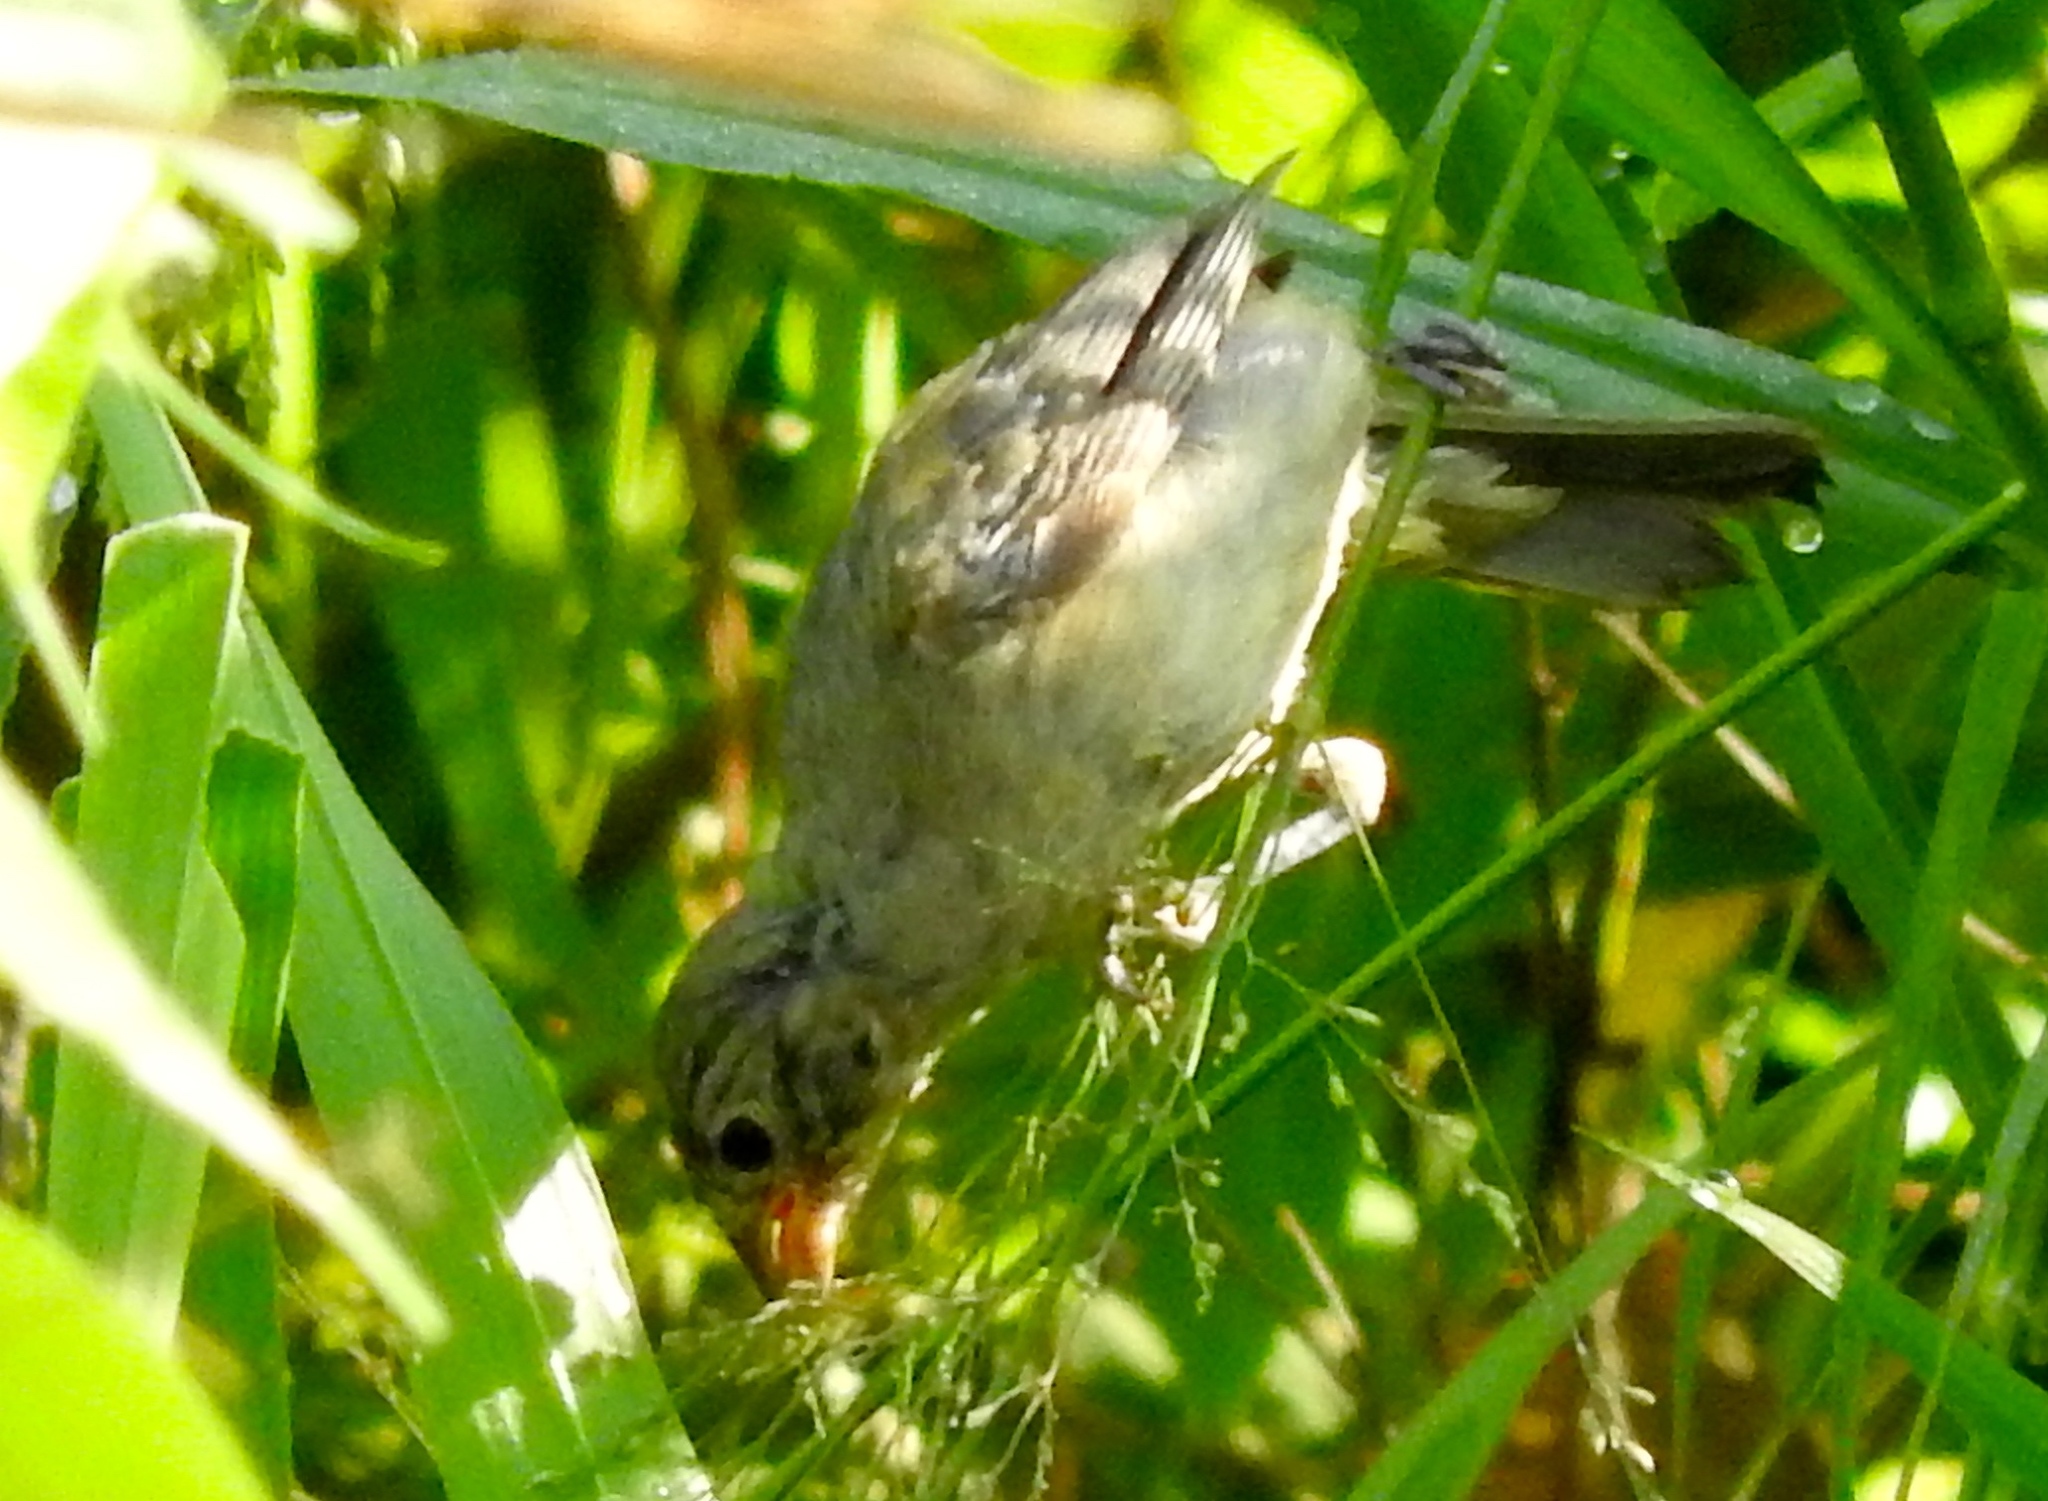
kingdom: Animalia
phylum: Chordata
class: Aves
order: Passeriformes
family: Thraupidae
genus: Sporophila
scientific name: Sporophila torqueola
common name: White-collared seedeater
